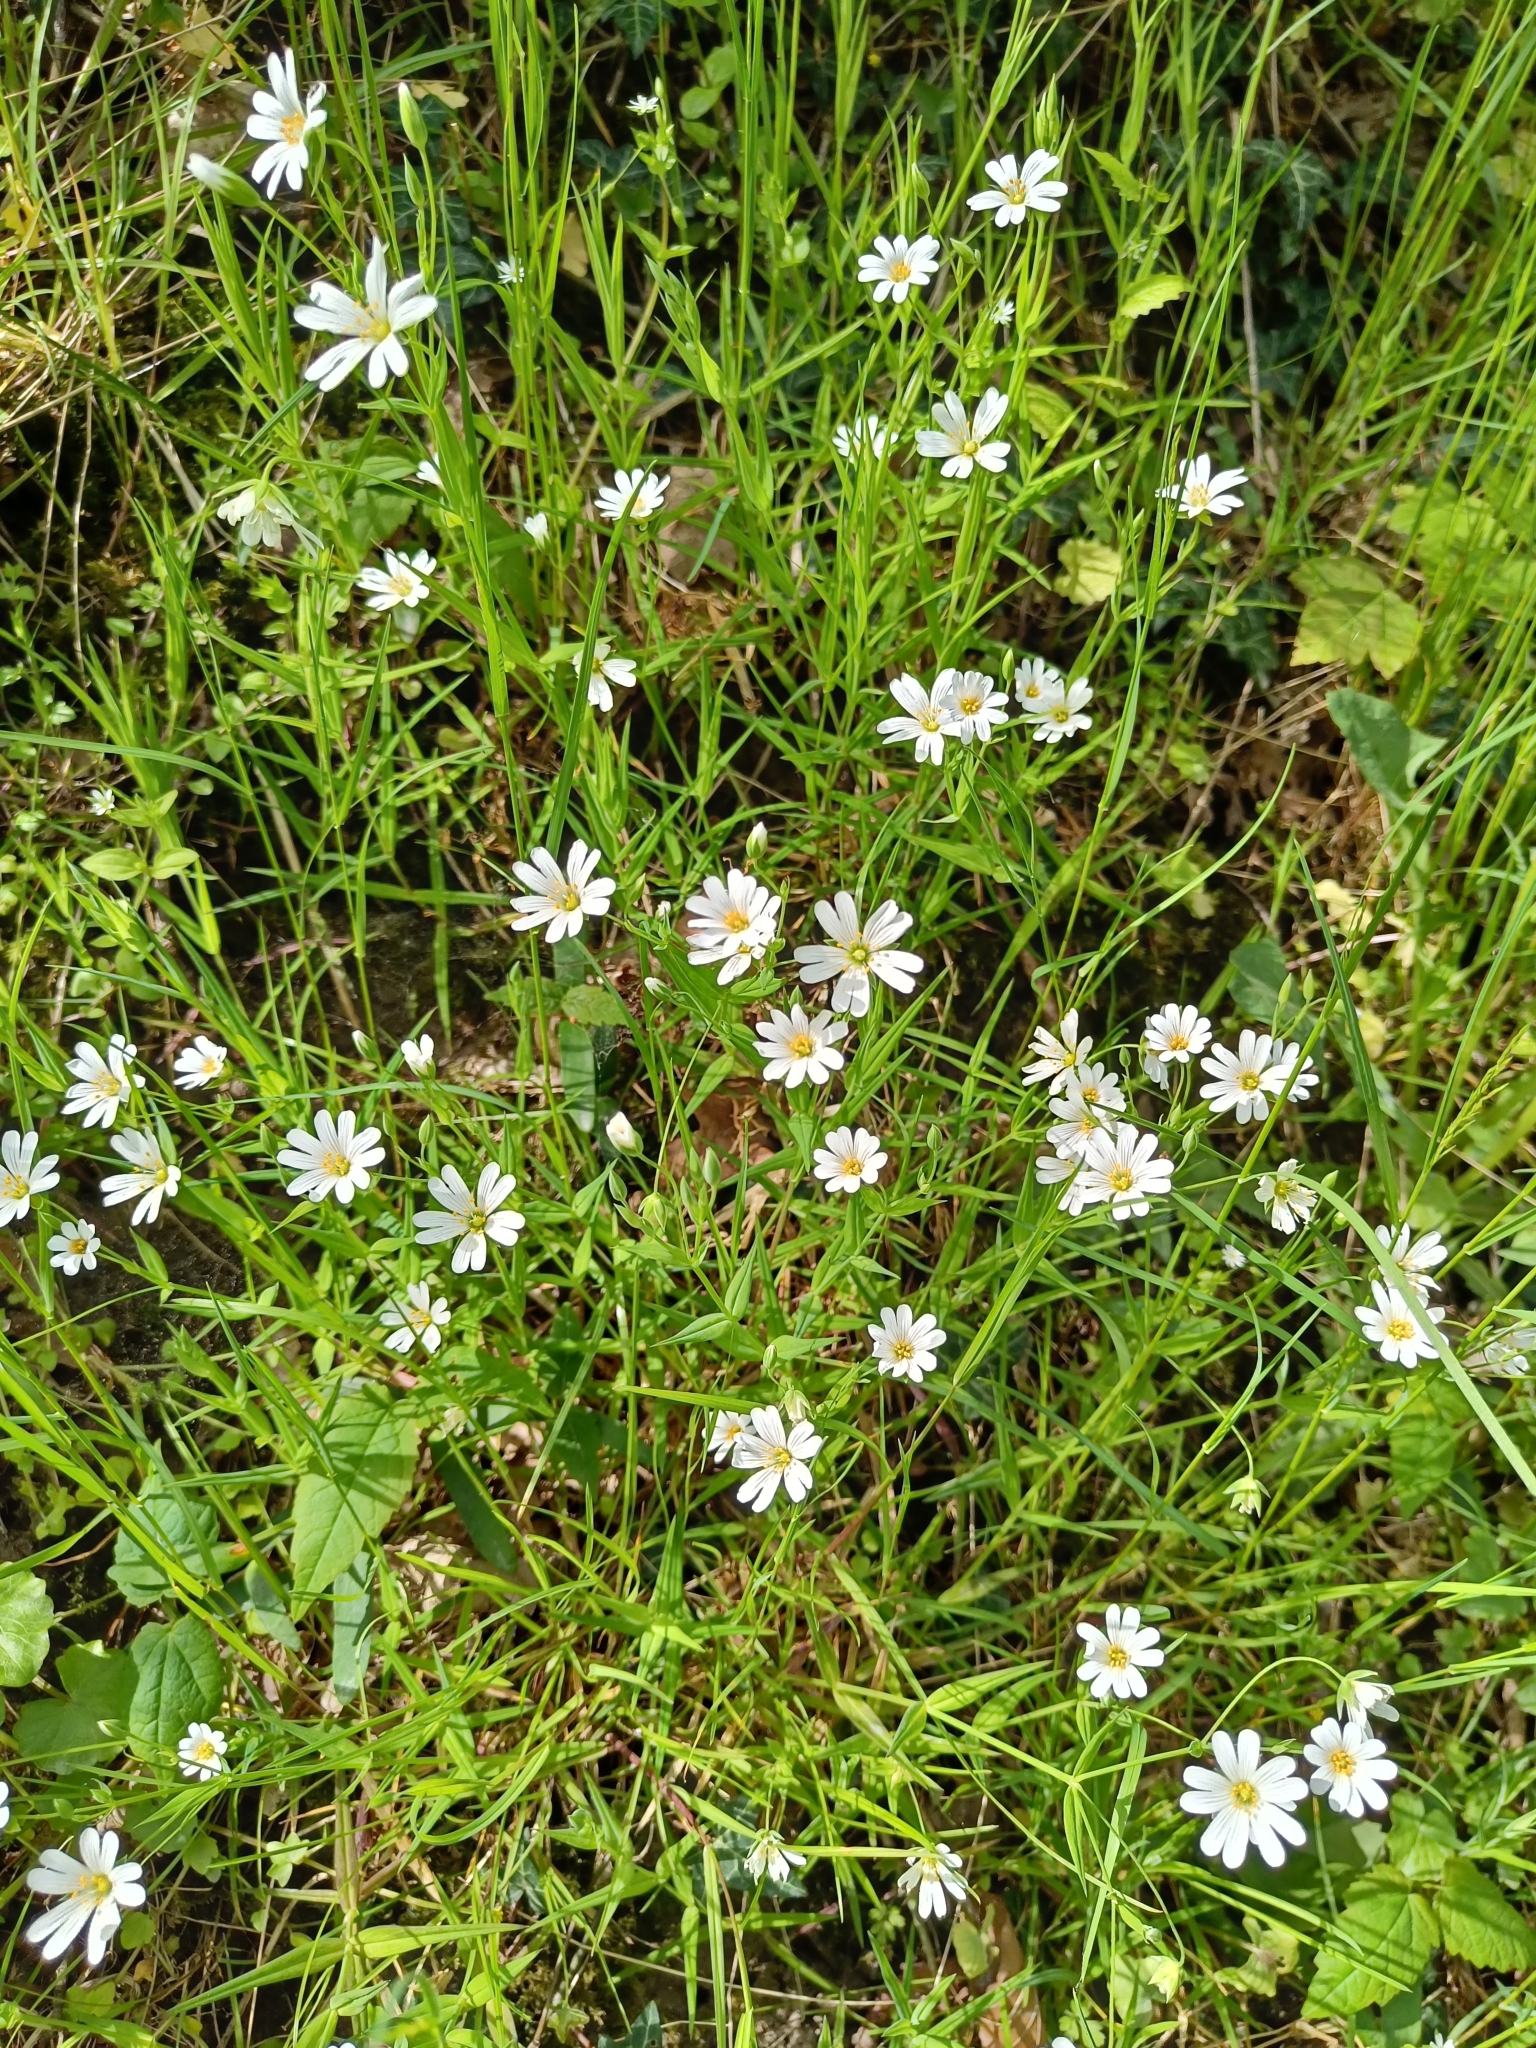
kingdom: Plantae
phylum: Tracheophyta
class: Magnoliopsida
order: Caryophyllales
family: Caryophyllaceae
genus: Rabelera
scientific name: Rabelera holostea
